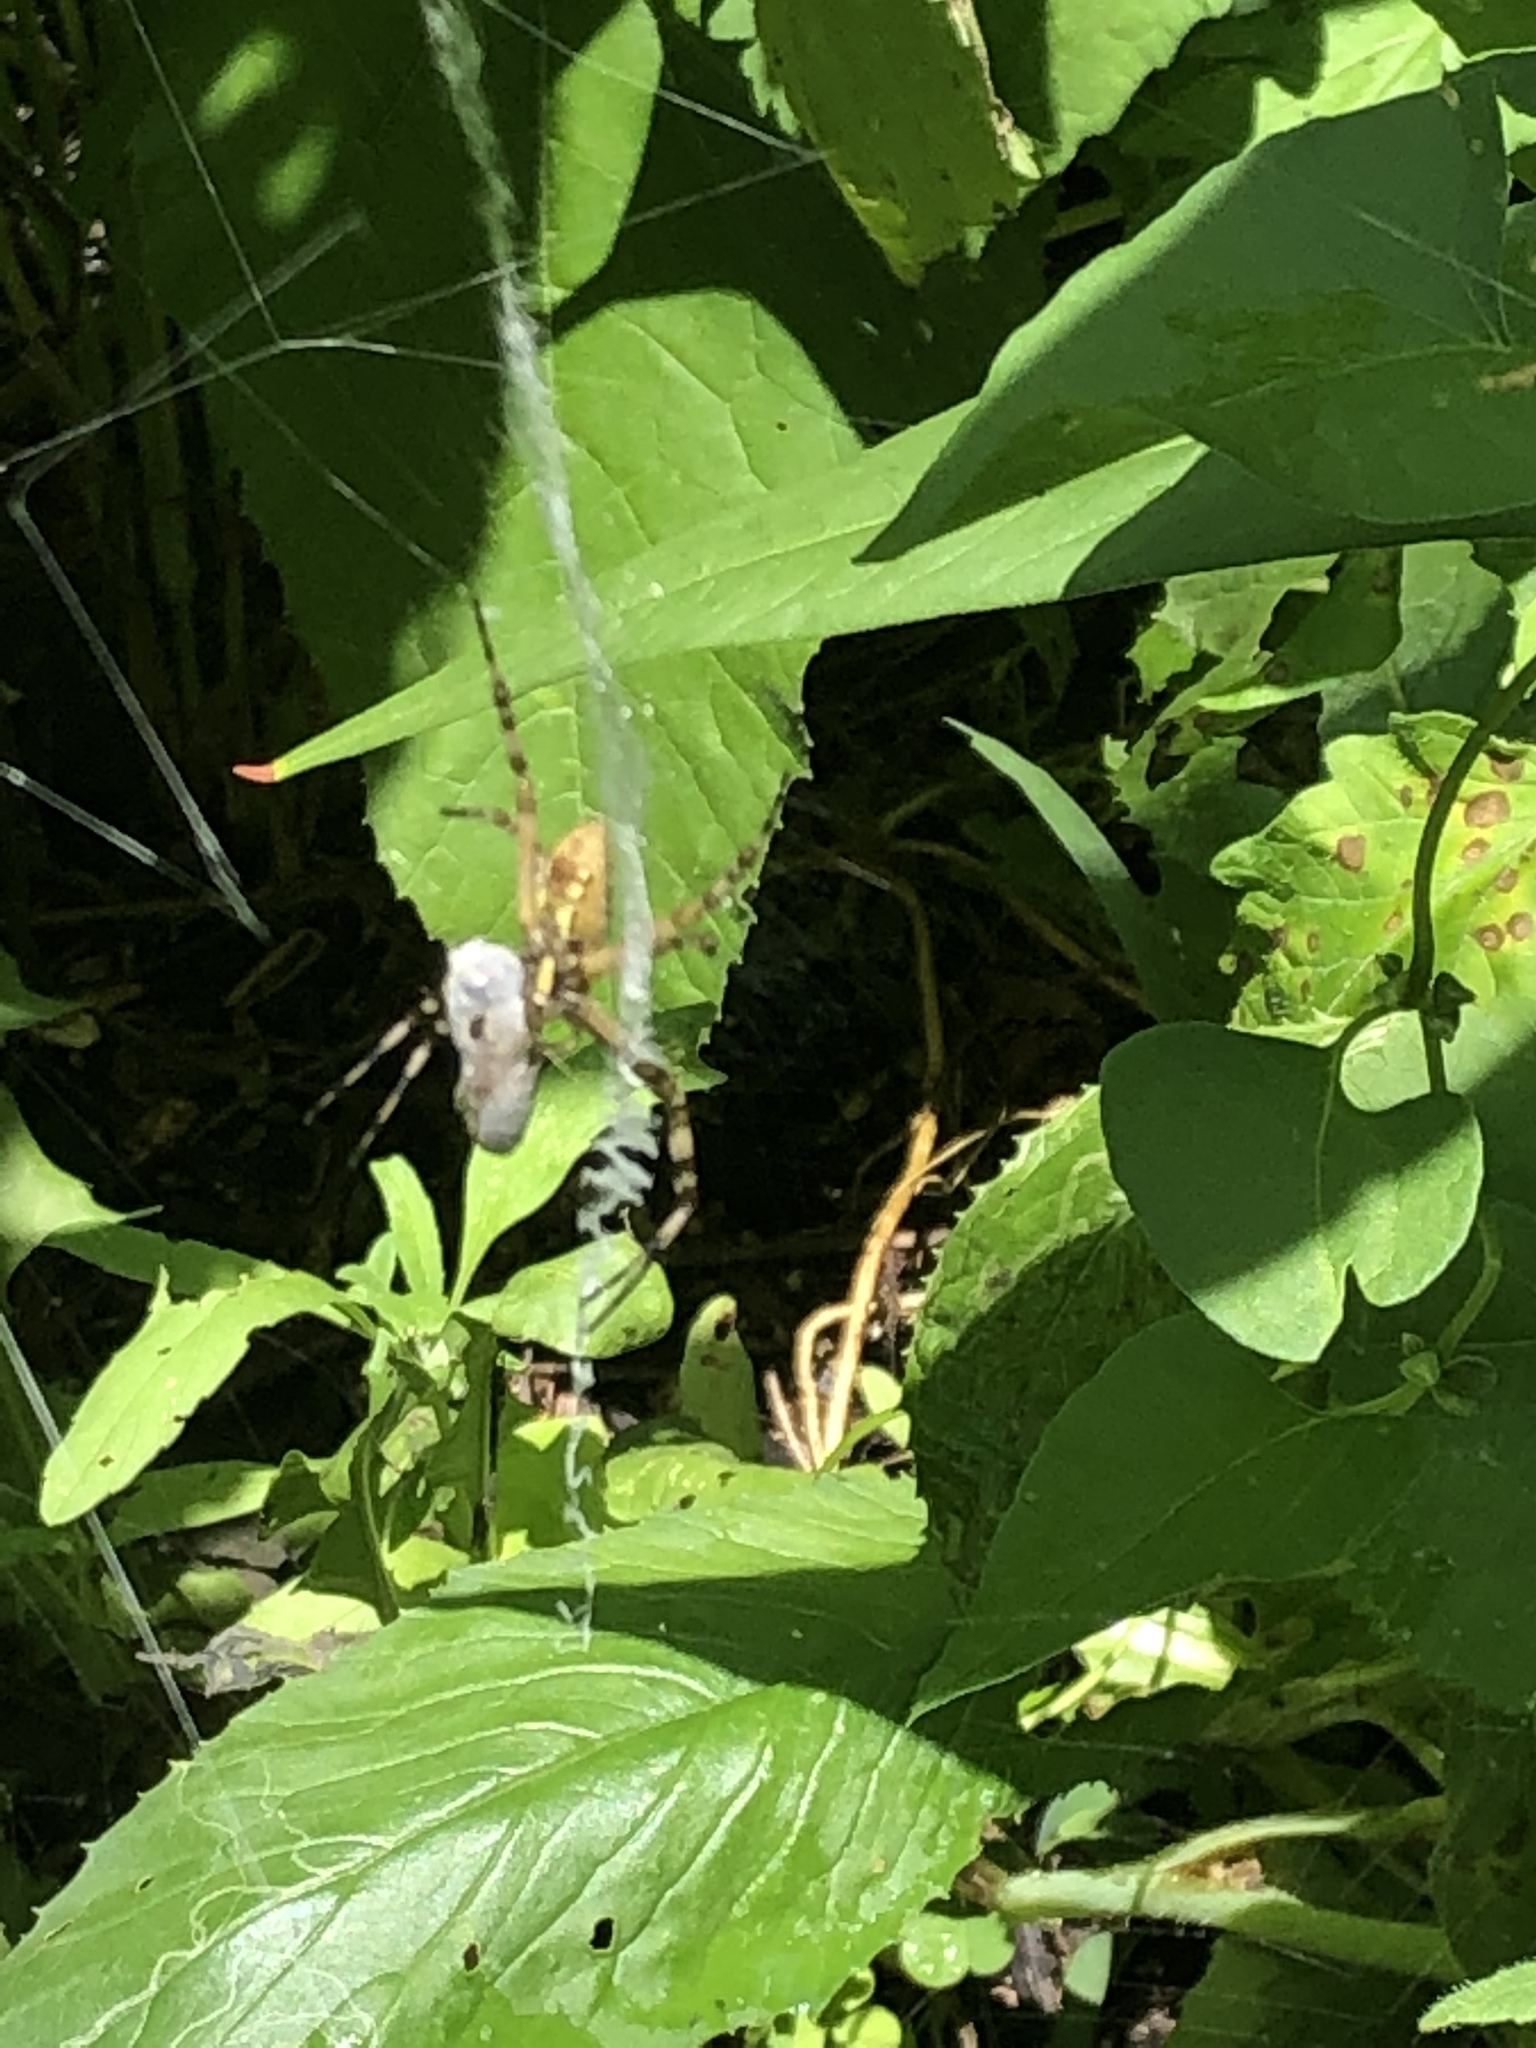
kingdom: Animalia
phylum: Arthropoda
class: Arachnida
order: Araneae
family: Araneidae
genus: Argiope
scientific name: Argiope aurantia
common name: Orb weavers
